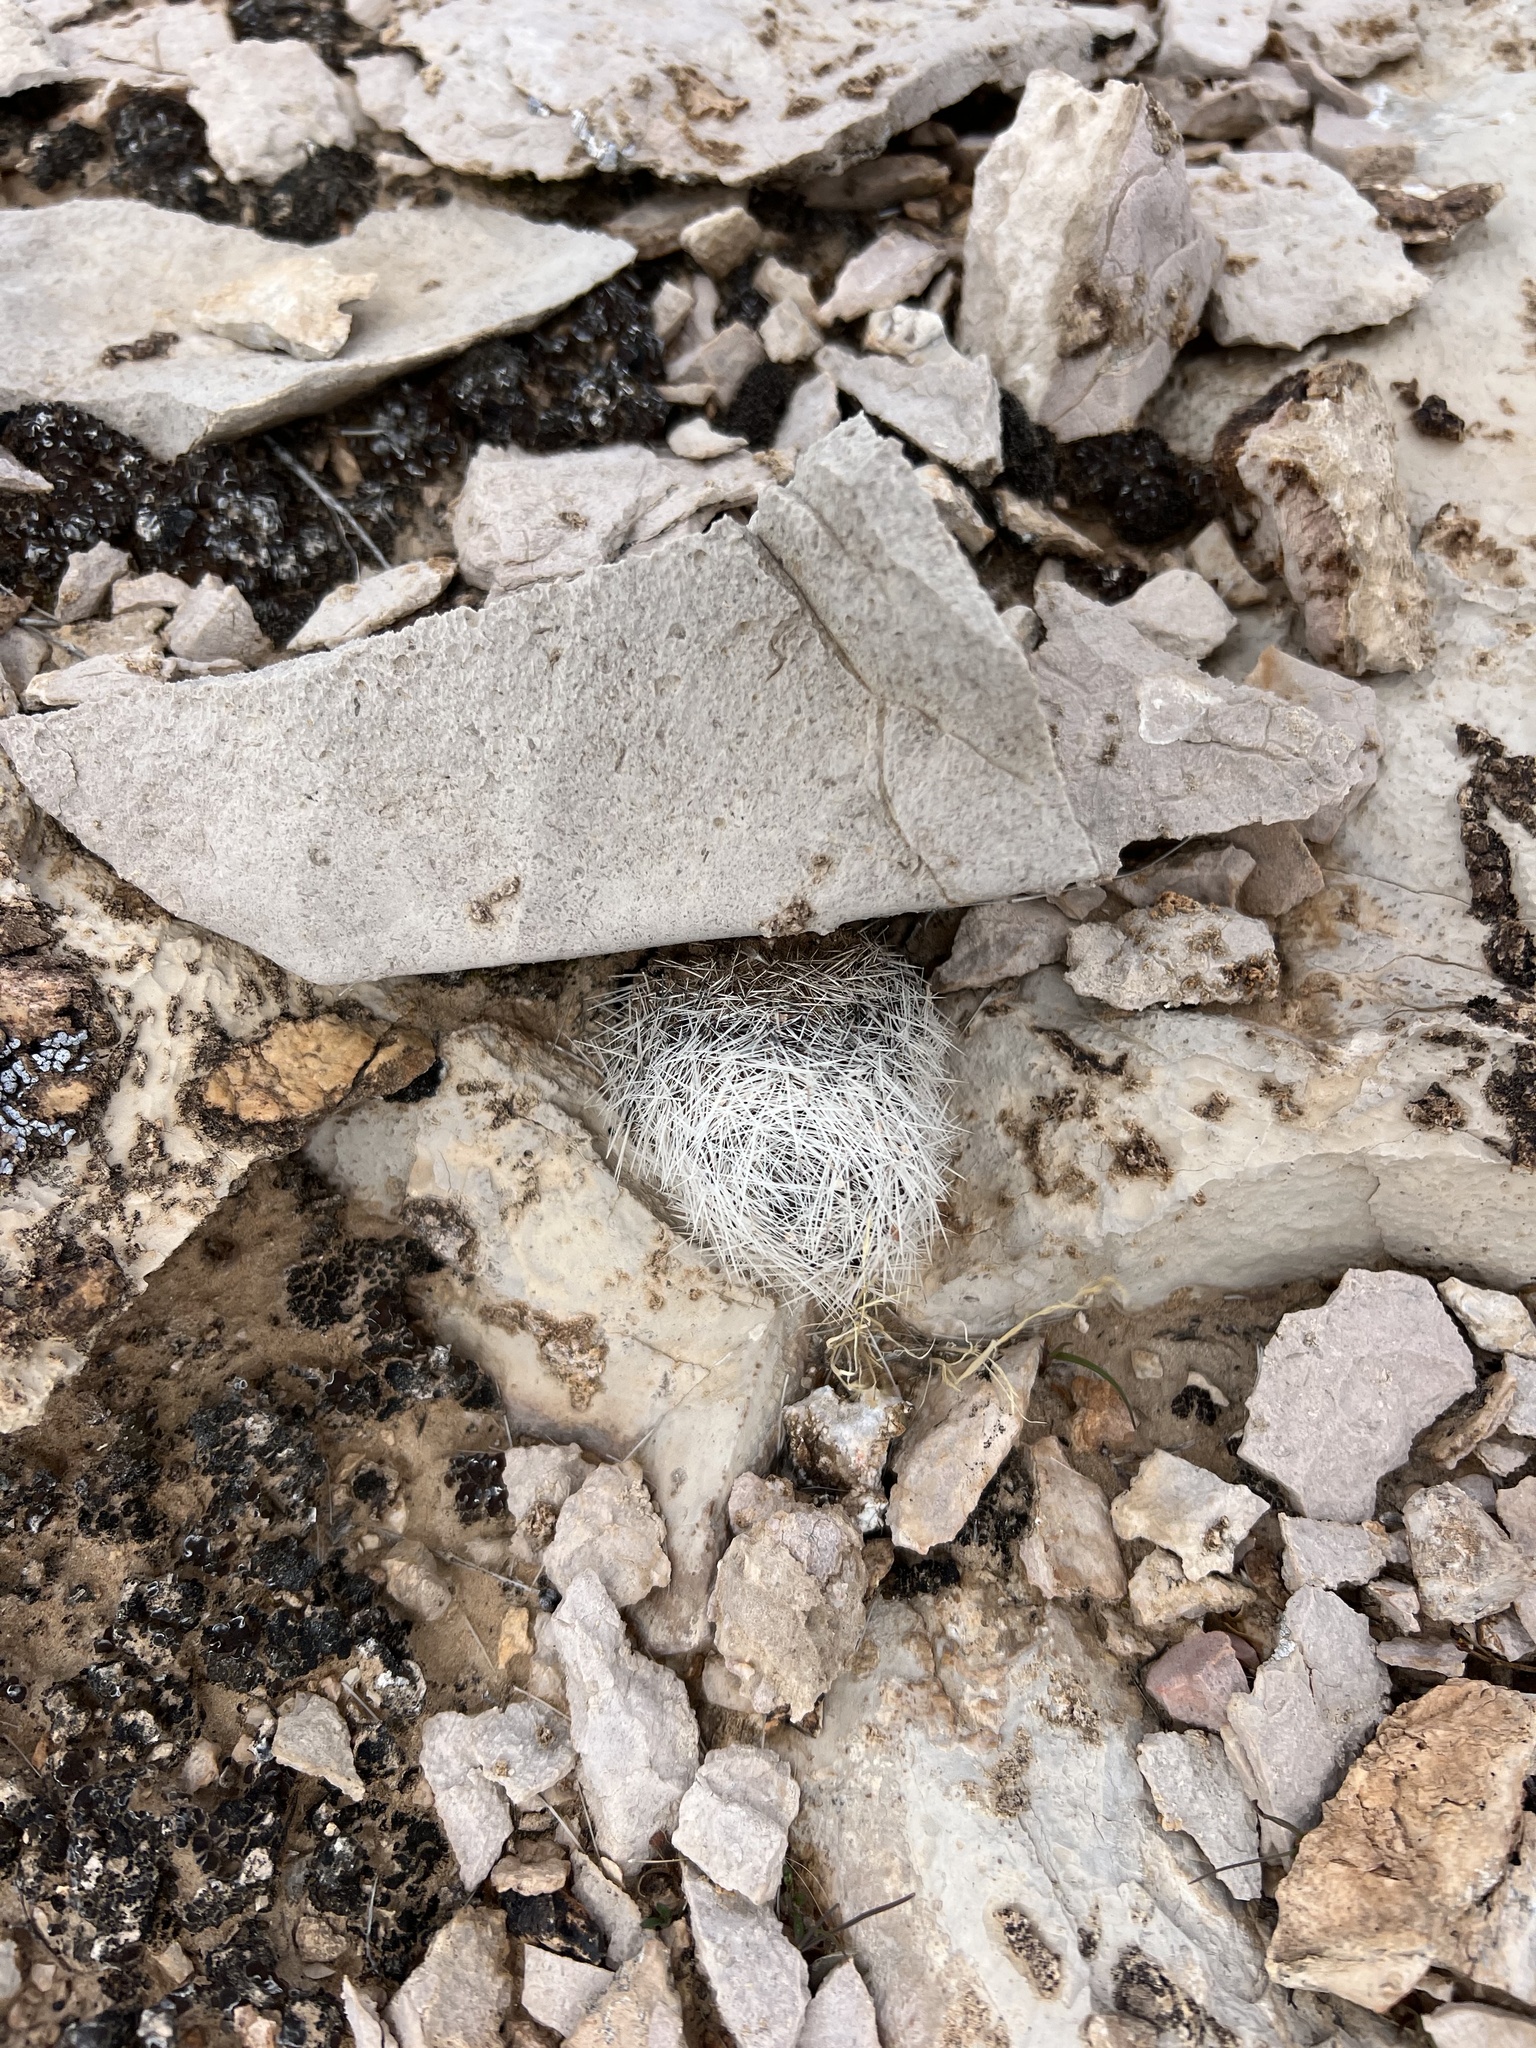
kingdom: Plantae
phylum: Tracheophyta
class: Magnoliopsida
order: Caryophyllales
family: Cactaceae
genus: Pelecyphora
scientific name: Pelecyphora dasyacantha
